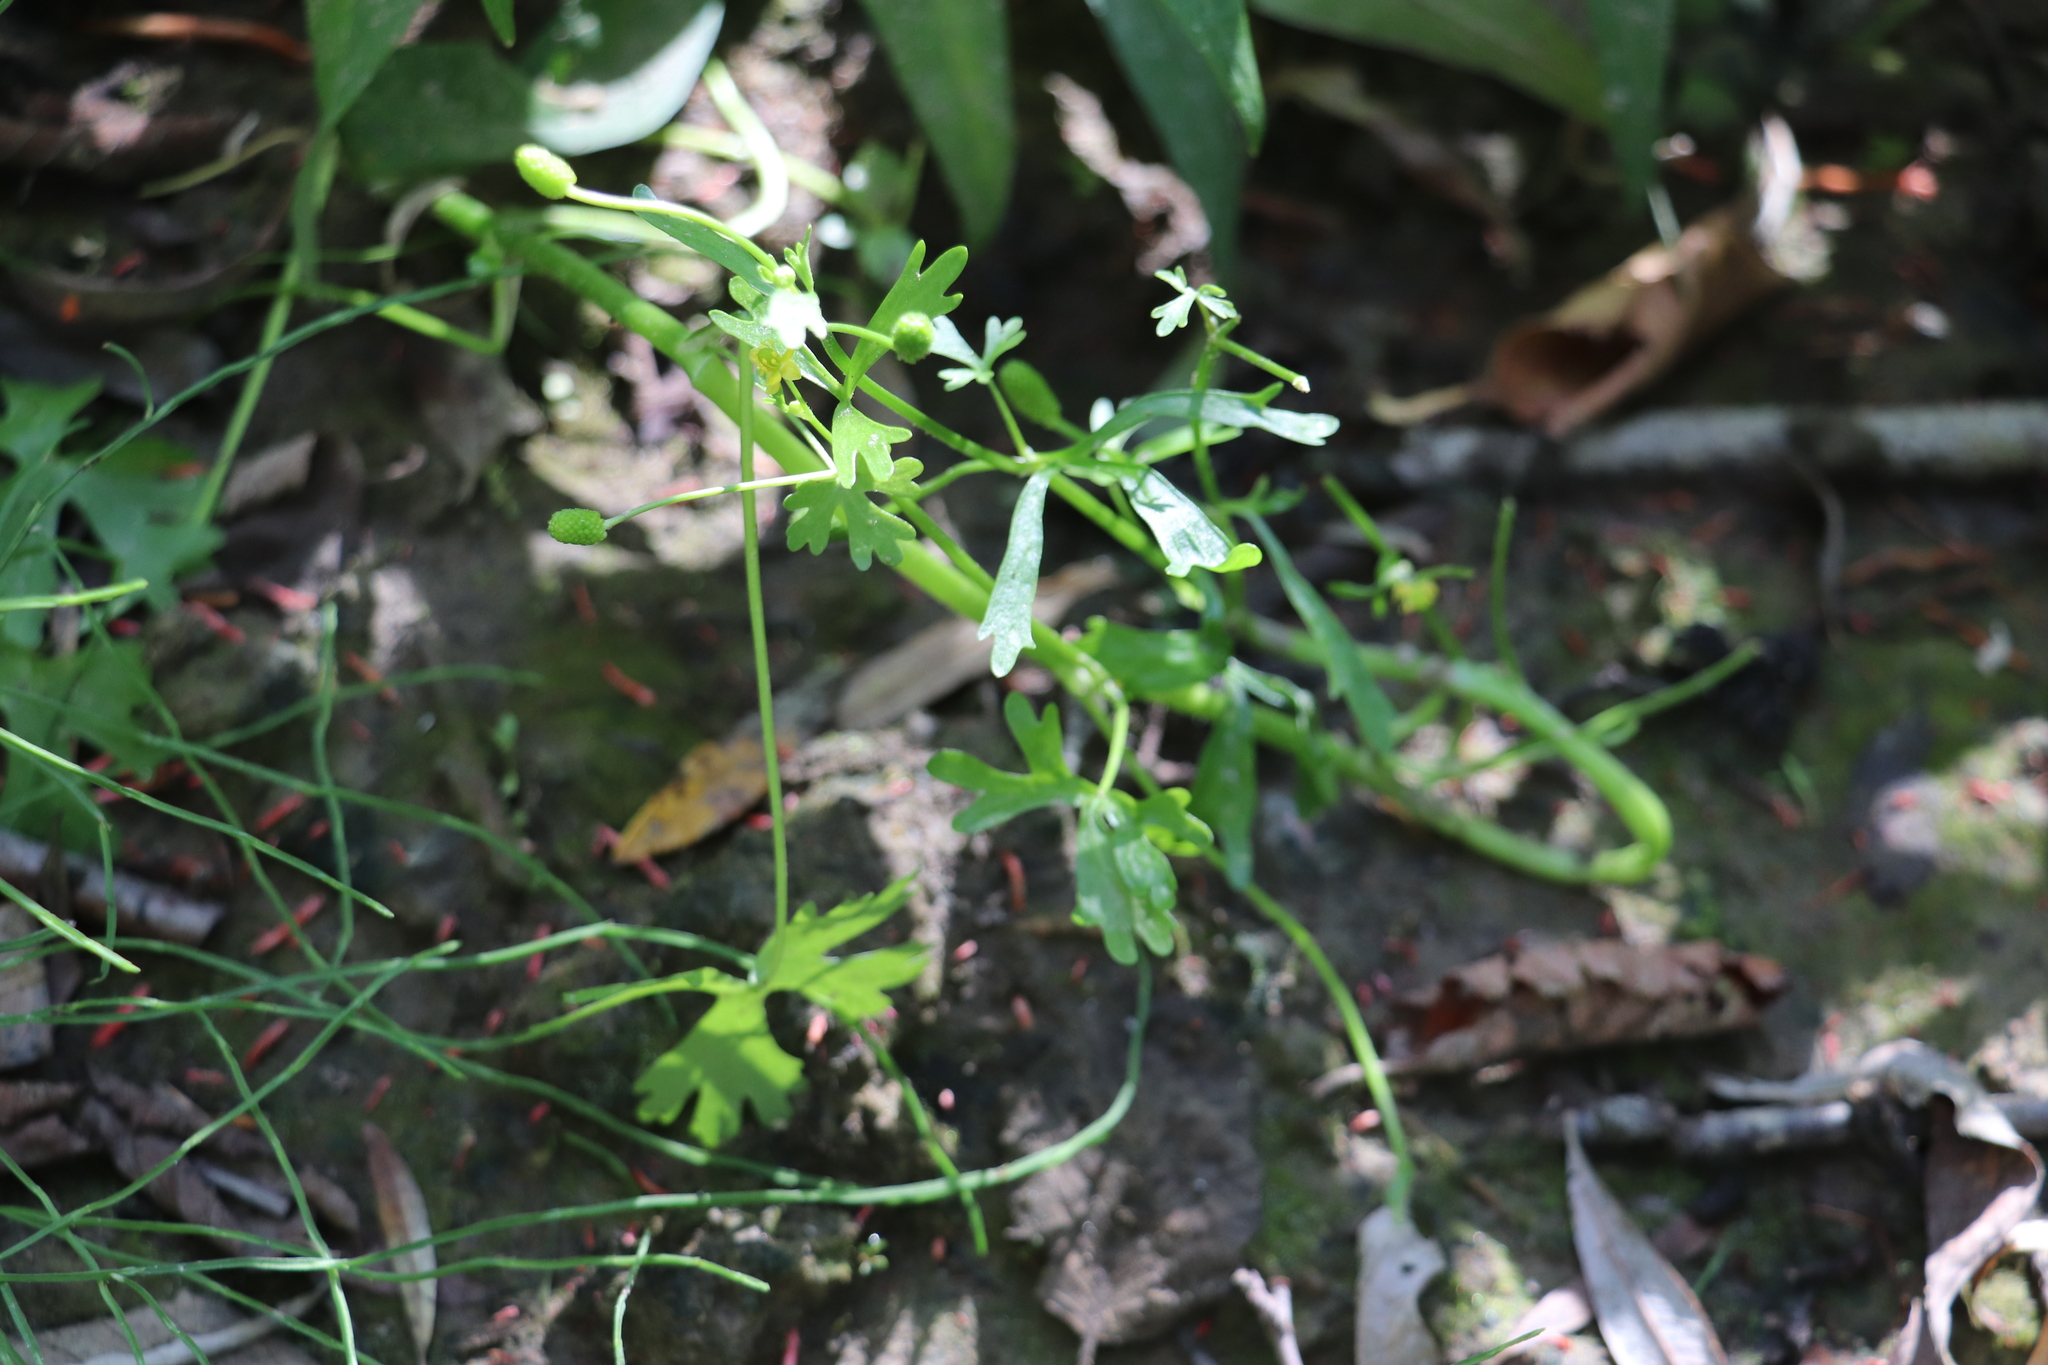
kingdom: Plantae
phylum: Tracheophyta
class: Magnoliopsida
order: Ranunculales
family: Ranunculaceae
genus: Ranunculus
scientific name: Ranunculus sceleratus
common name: Celery-leaved buttercup
